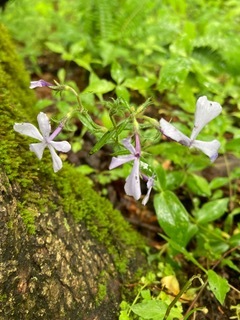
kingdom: Plantae
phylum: Tracheophyta
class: Magnoliopsida
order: Ericales
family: Polemoniaceae
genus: Phlox
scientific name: Phlox divaricata
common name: Blue phlox
